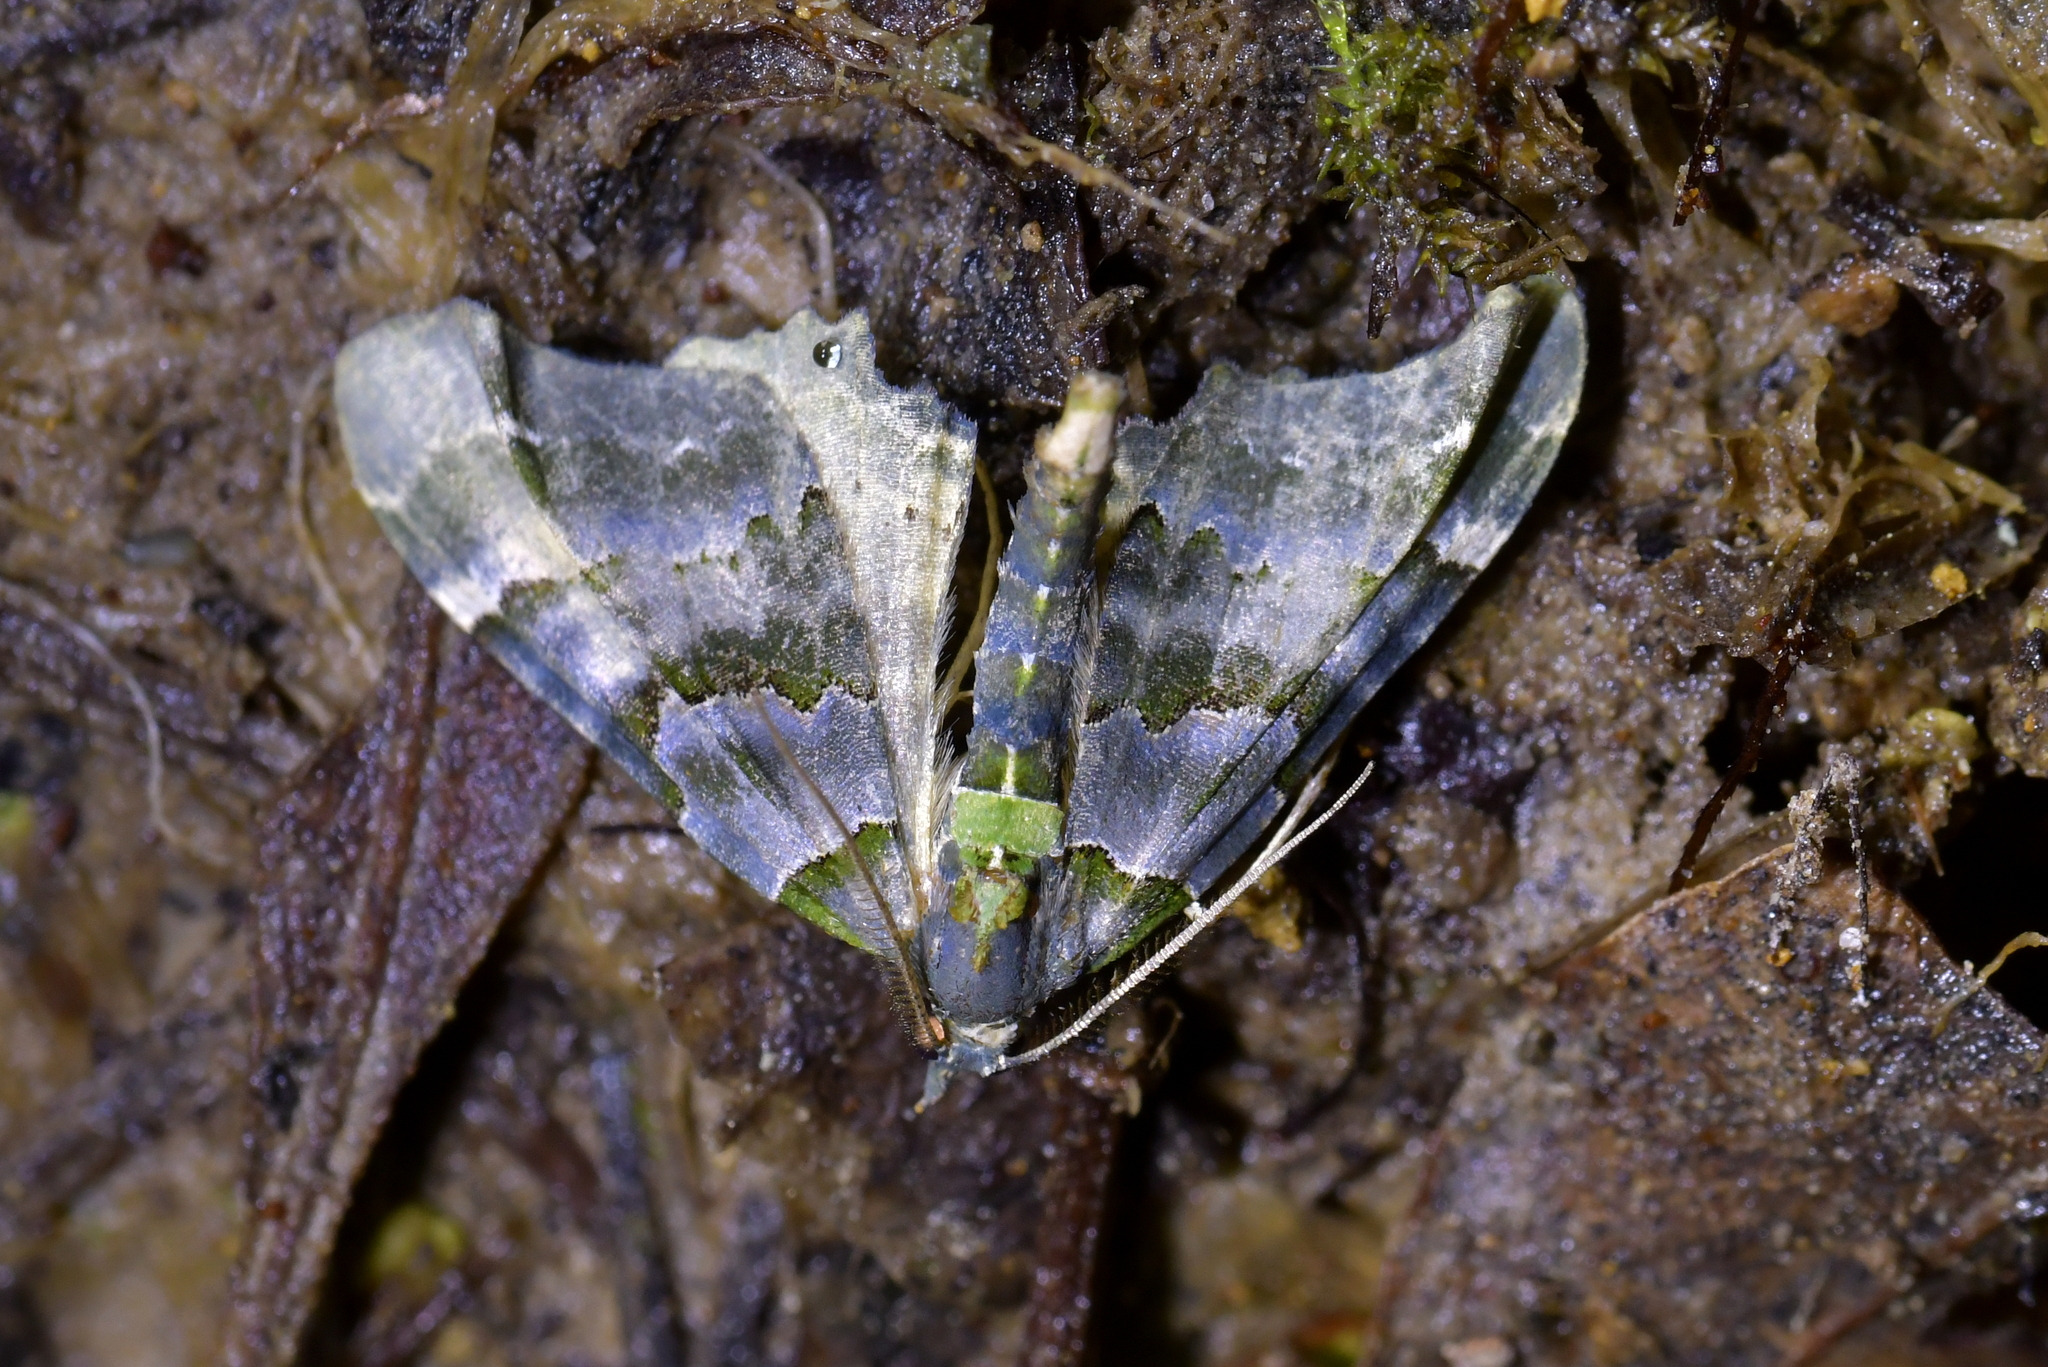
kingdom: Animalia
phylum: Arthropoda
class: Insecta
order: Lepidoptera
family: Geometridae
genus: Elvia
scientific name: Elvia glaucata
